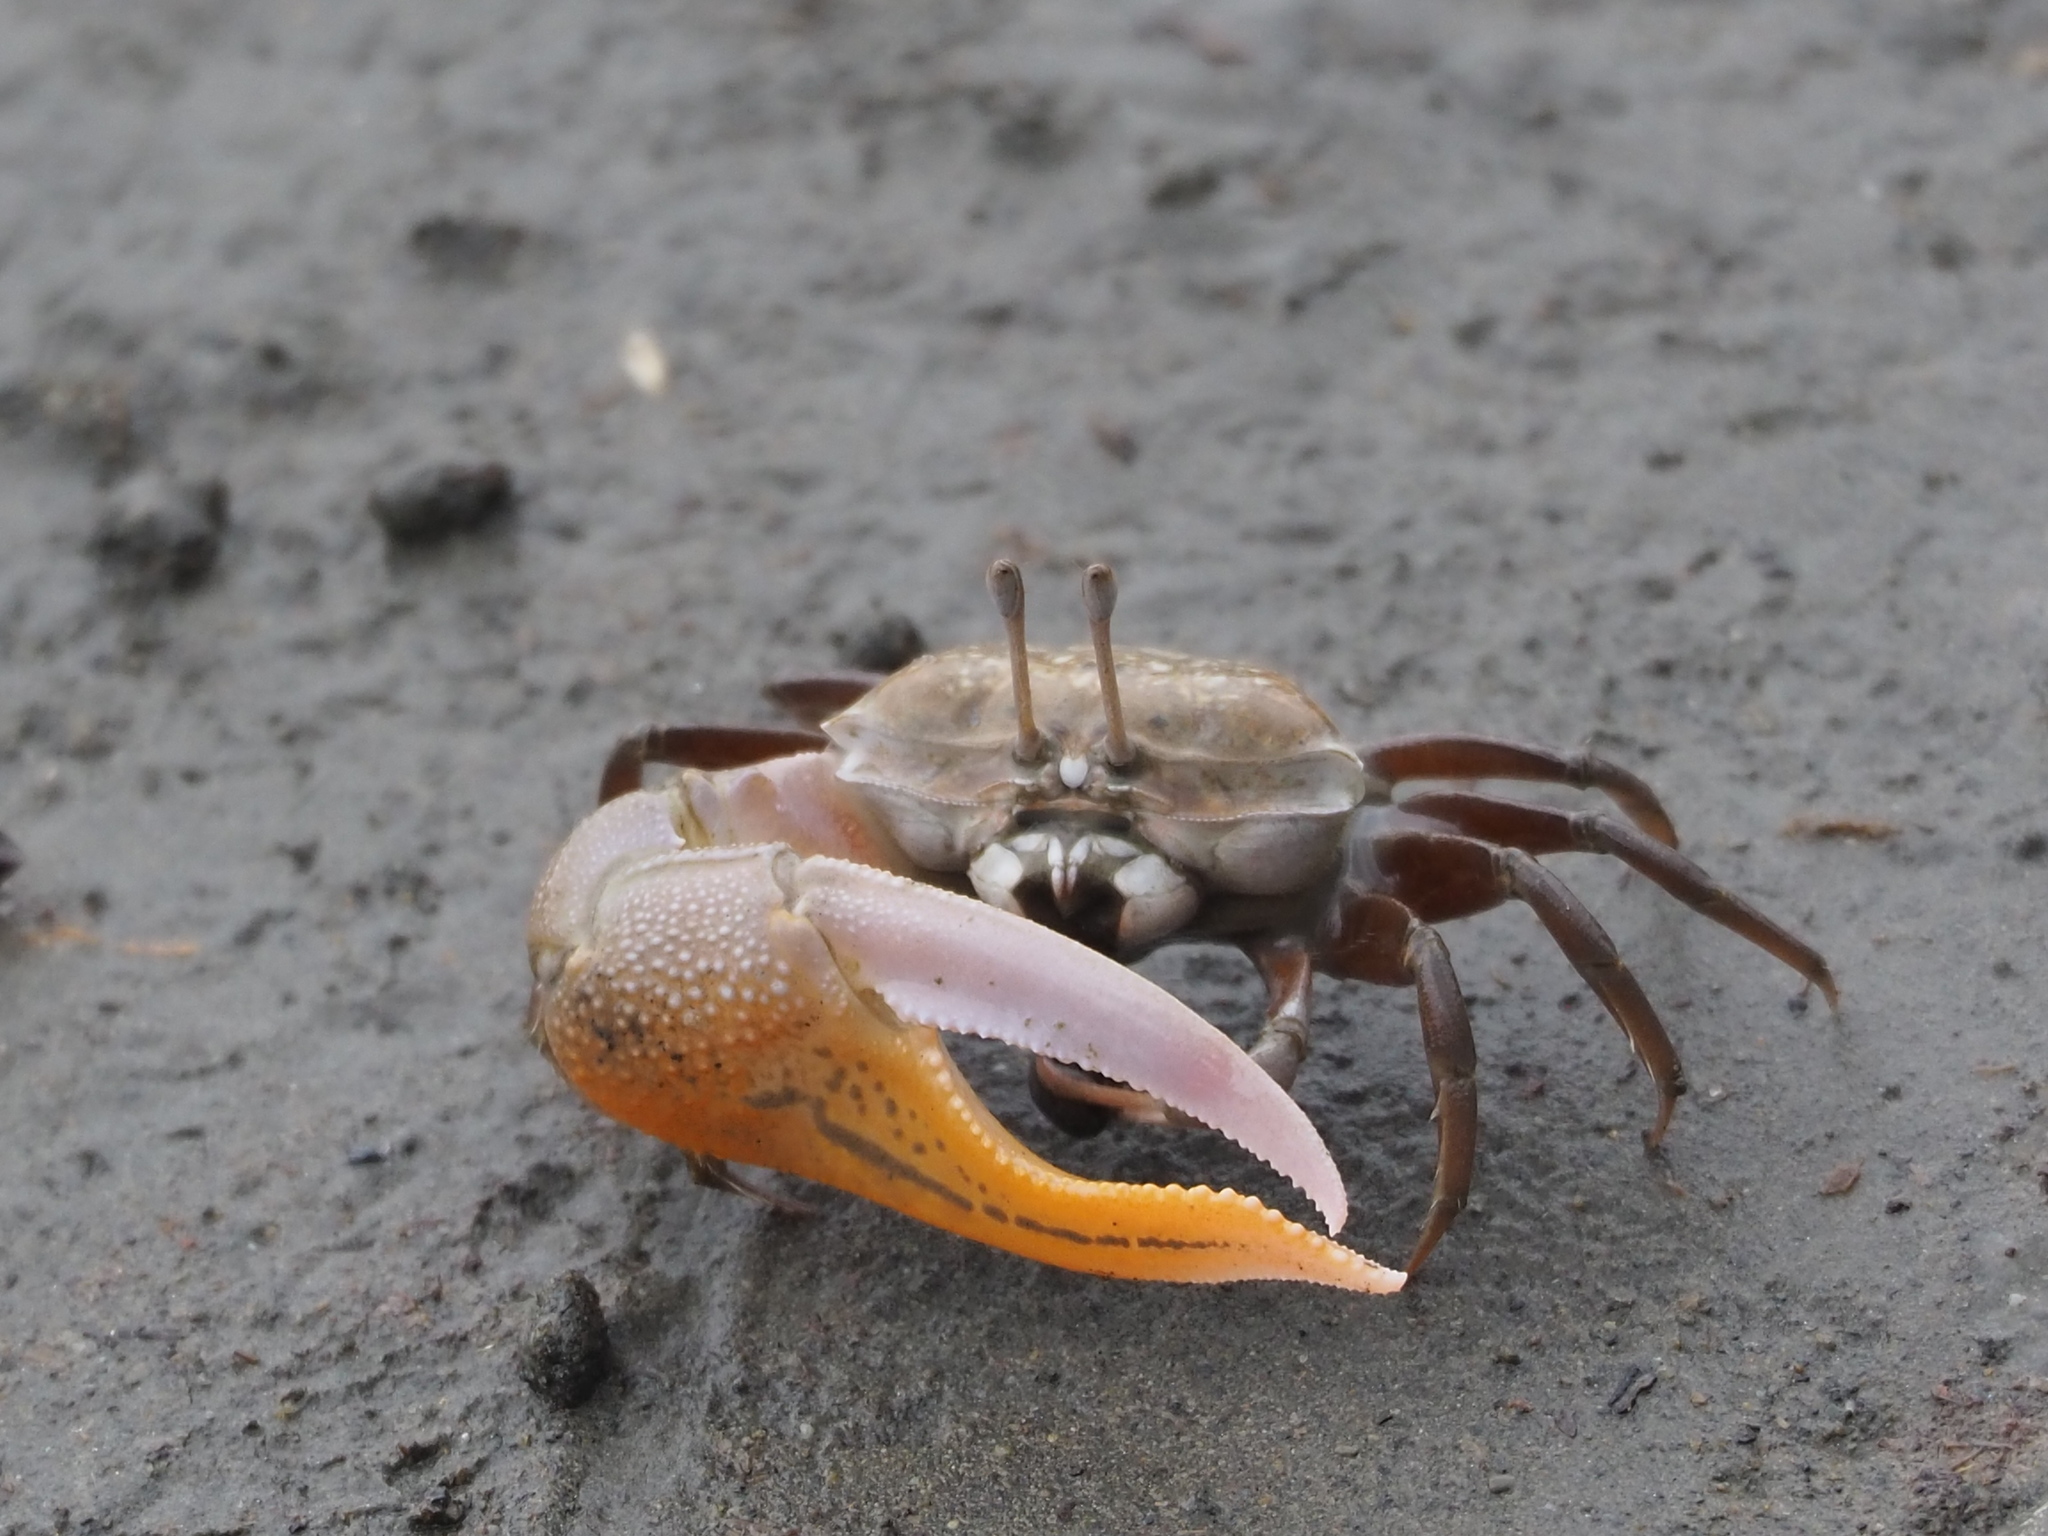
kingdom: Animalia
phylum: Arthropoda
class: Malacostraca
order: Decapoda
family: Ocypodidae
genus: Gelasimus
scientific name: Gelasimus borealis
